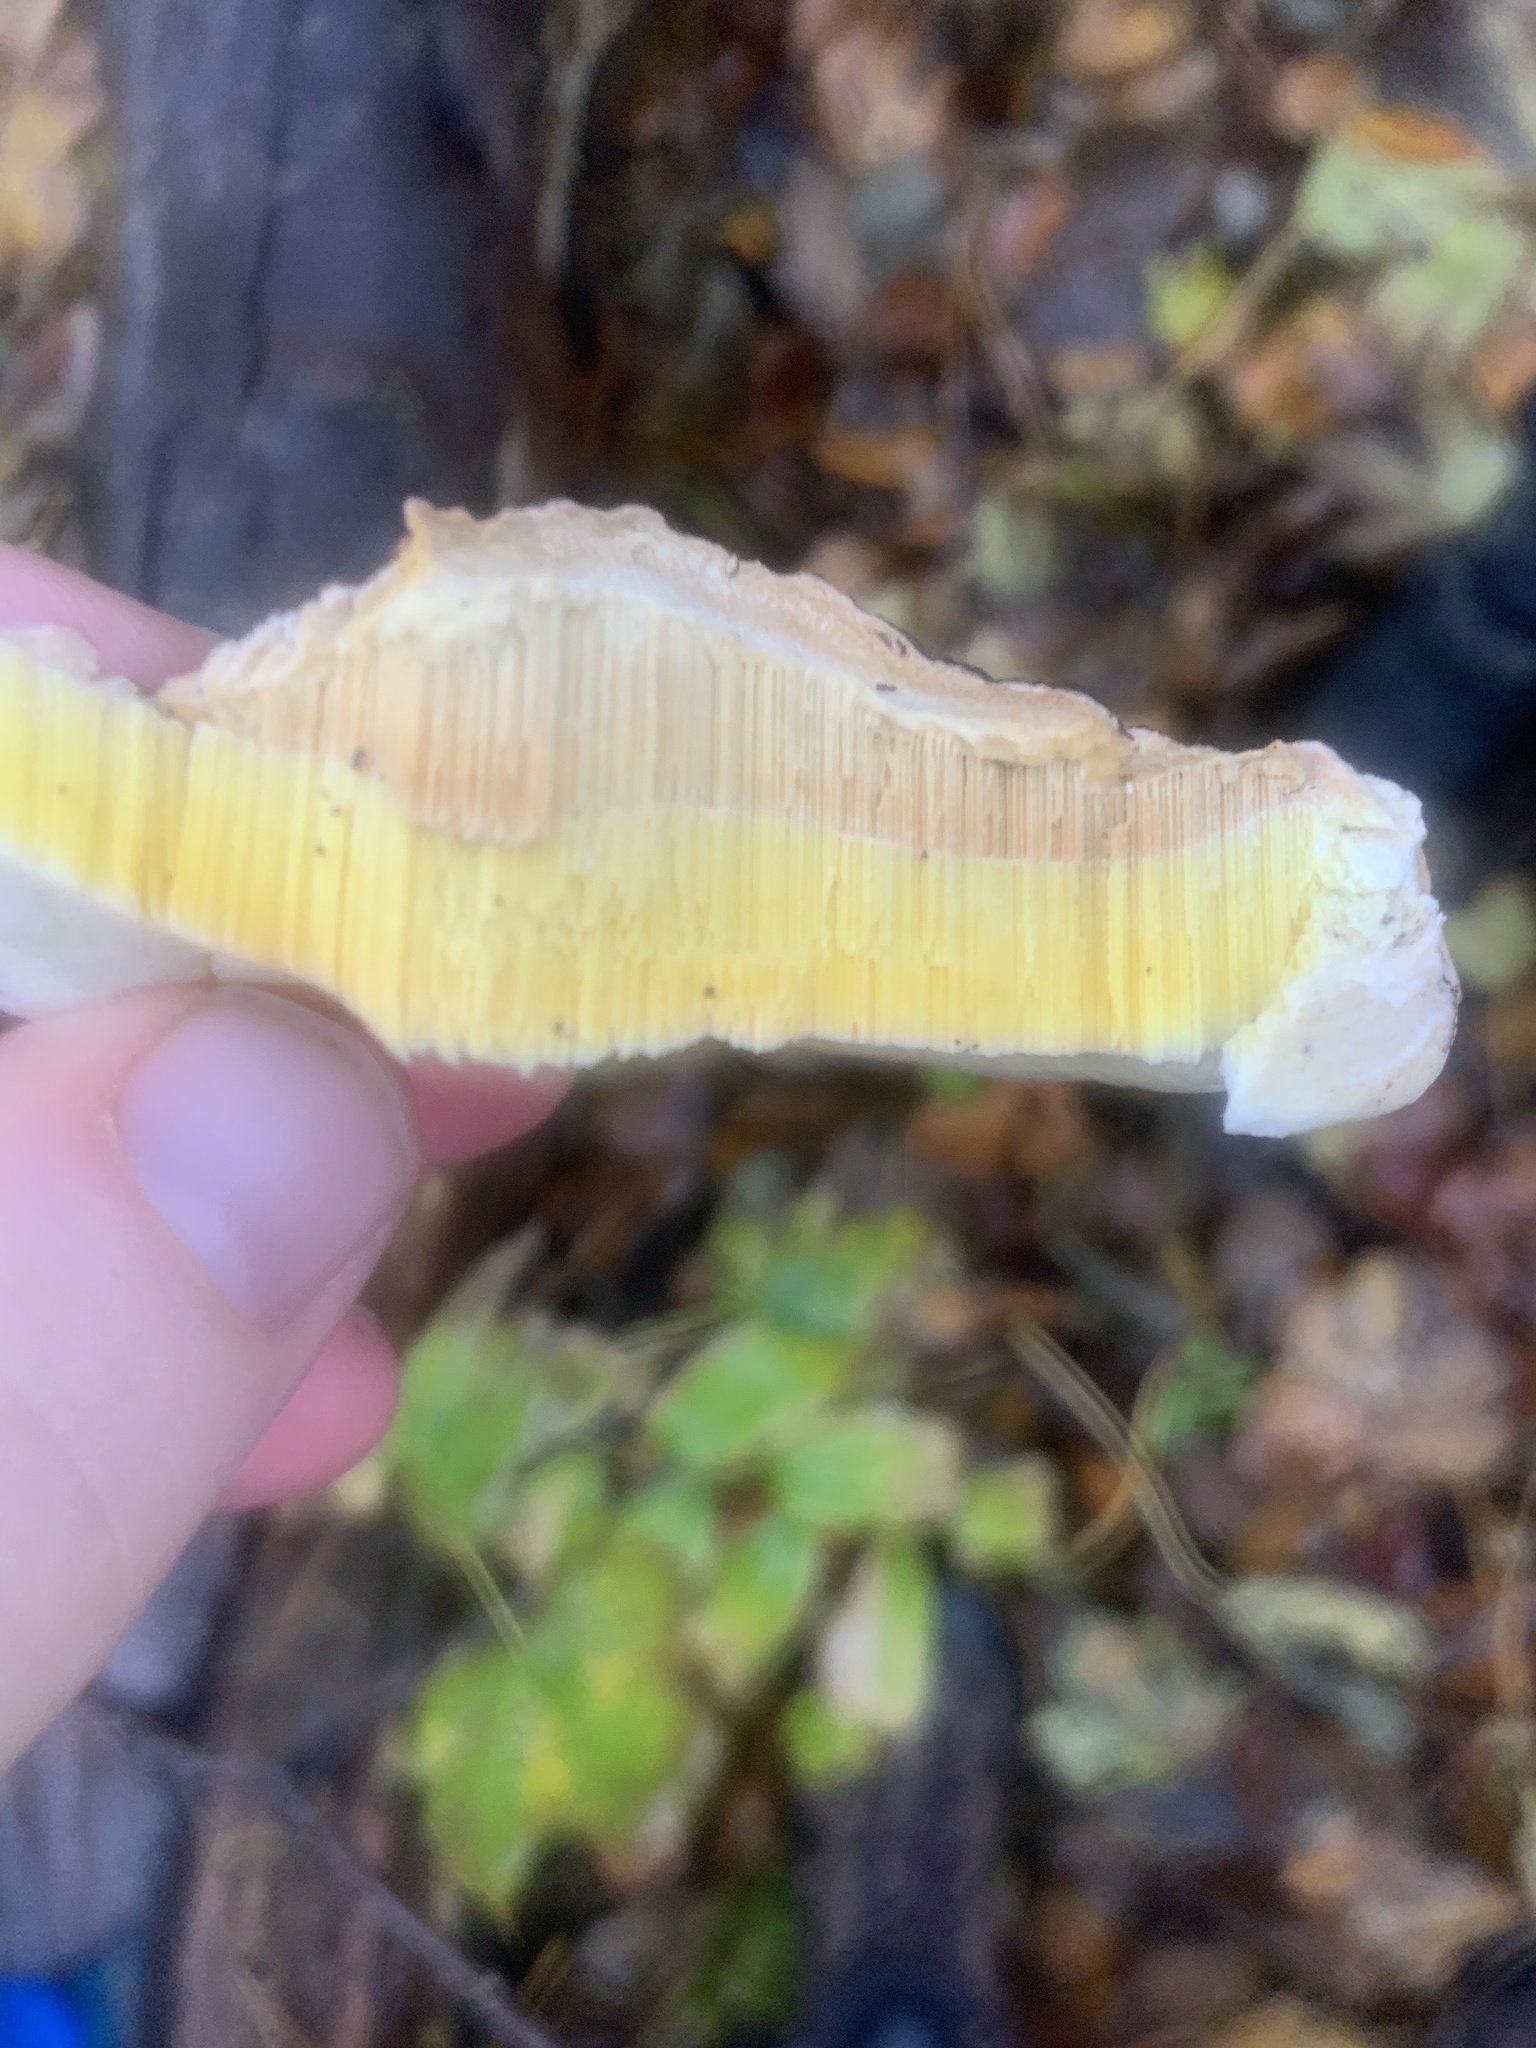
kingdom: Fungi
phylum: Basidiomycota
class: Agaricomycetes
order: Polyporales
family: Fomitopsidaceae
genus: Fomitopsis
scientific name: Fomitopsis pinicola
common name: Red-belted bracket
